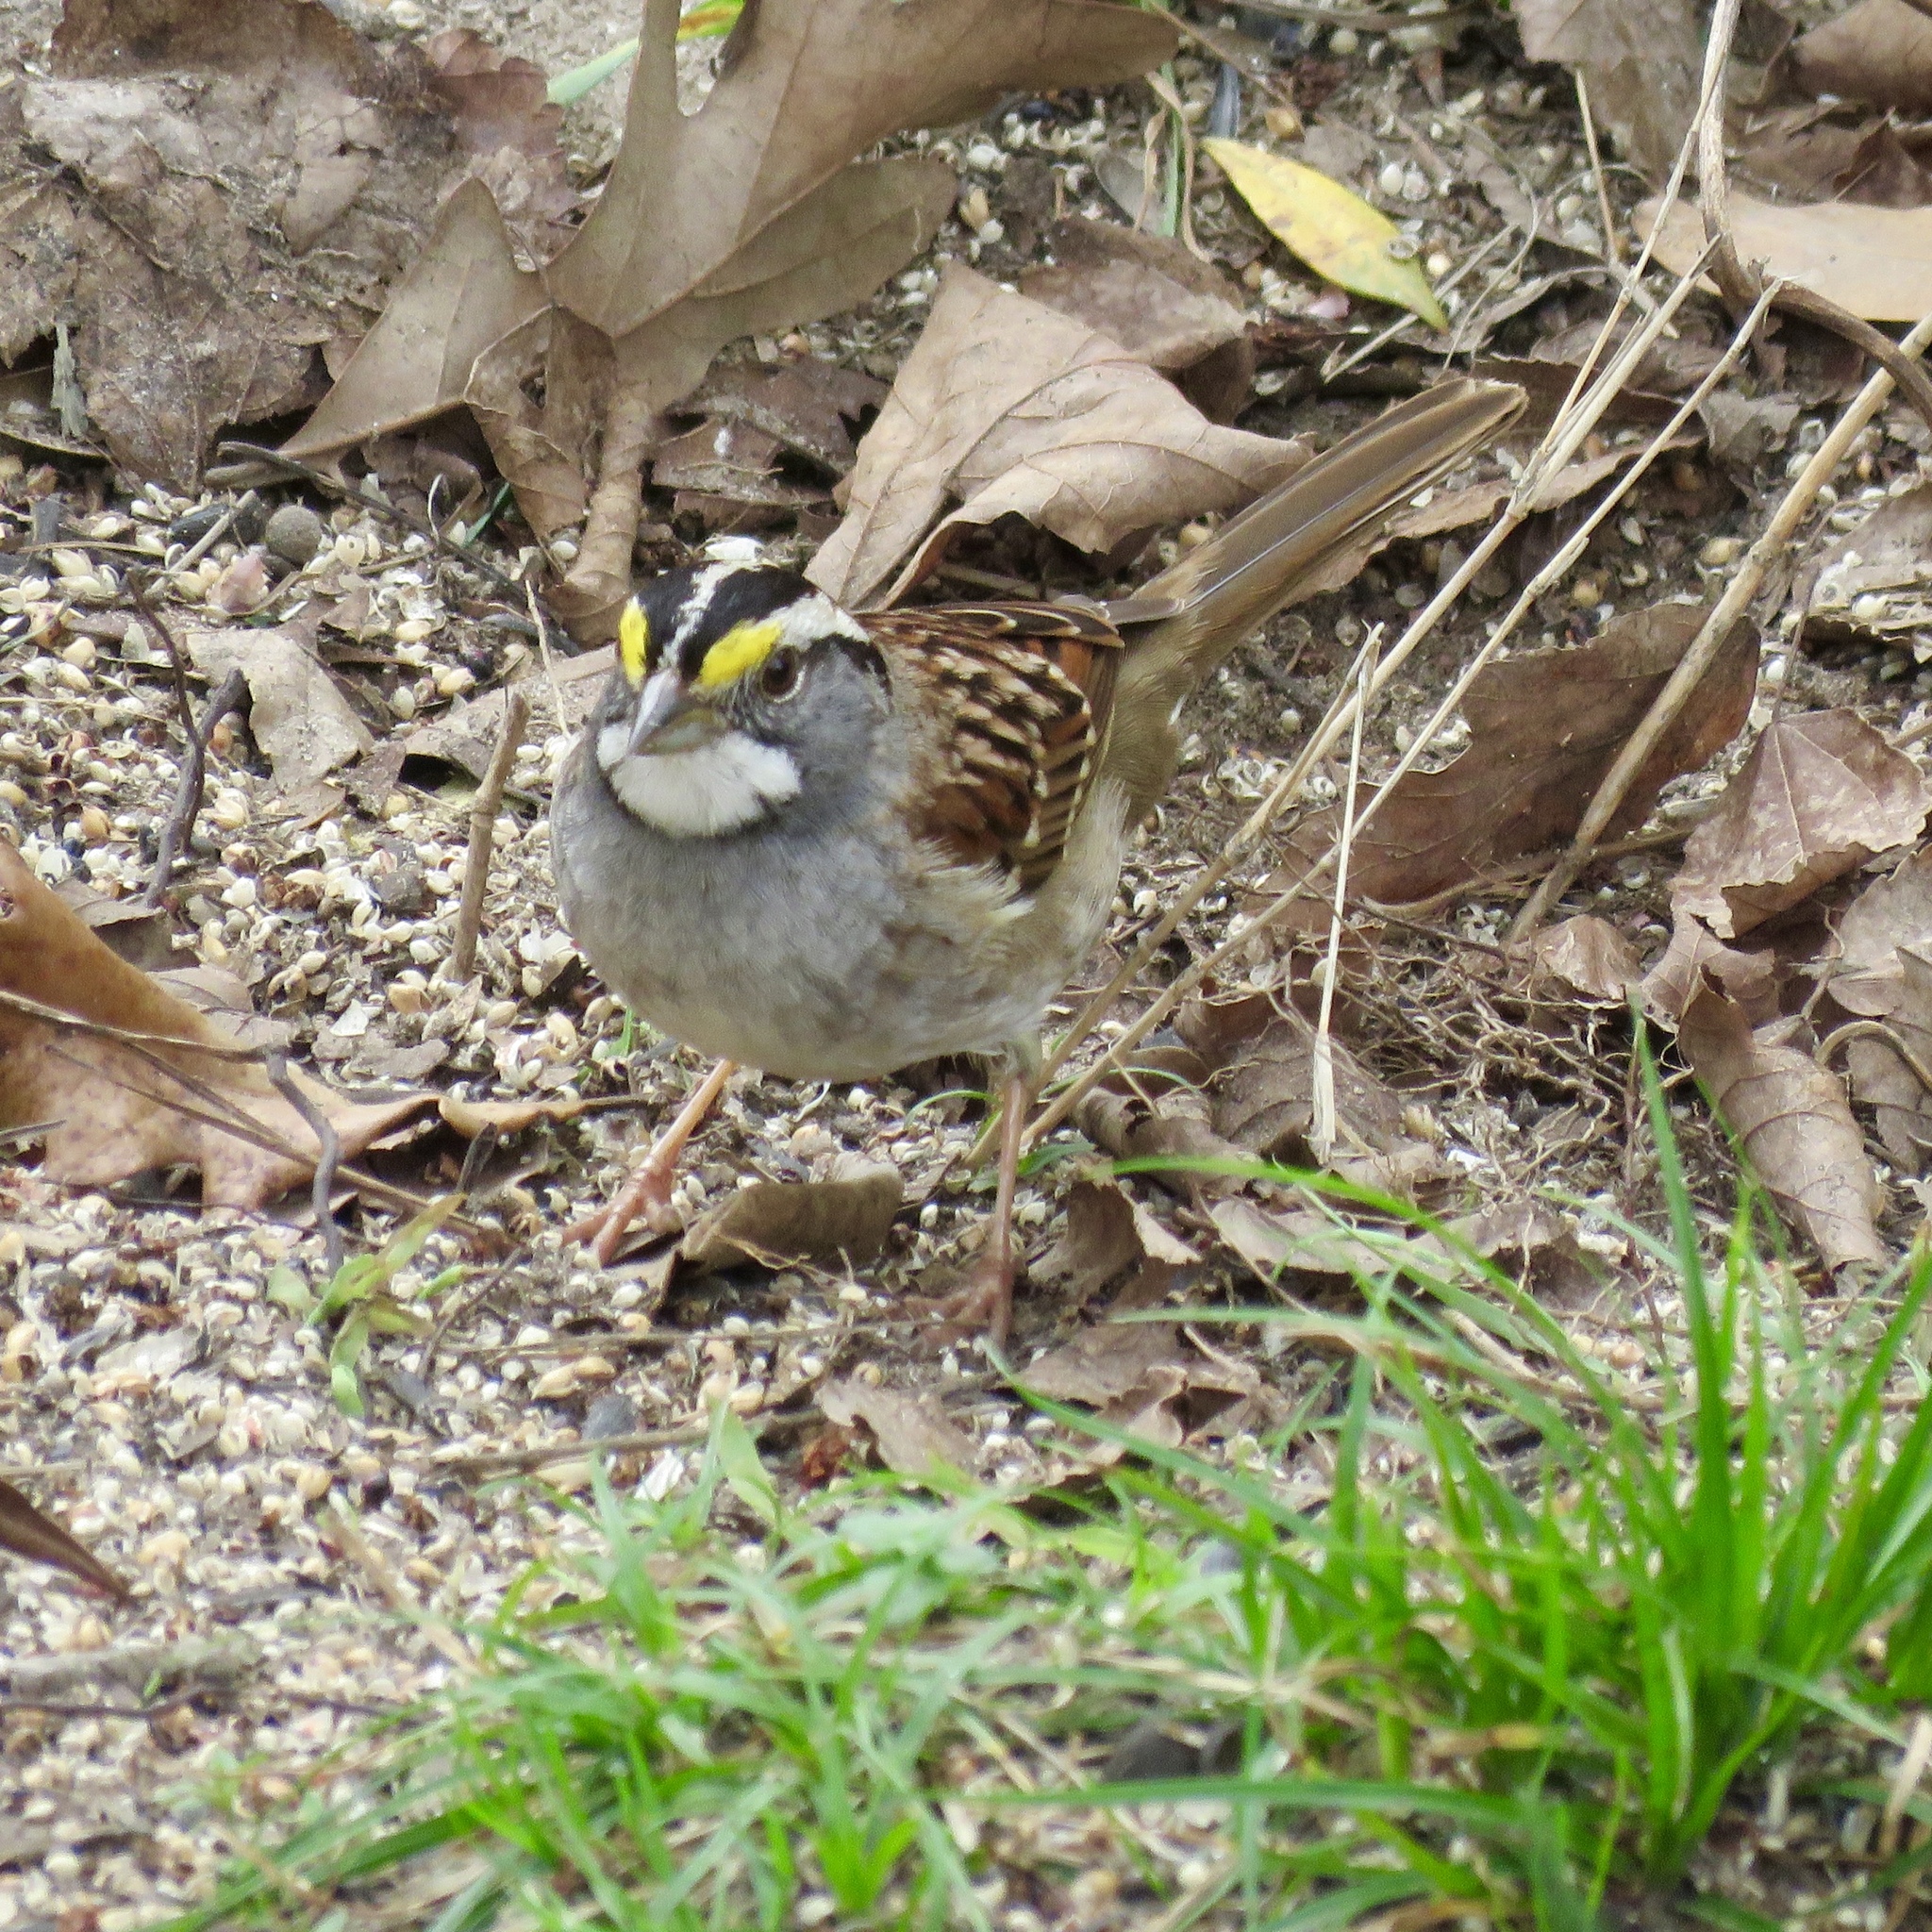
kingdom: Animalia
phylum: Chordata
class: Aves
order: Passeriformes
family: Passerellidae
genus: Zonotrichia
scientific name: Zonotrichia albicollis
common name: White-throated sparrow
